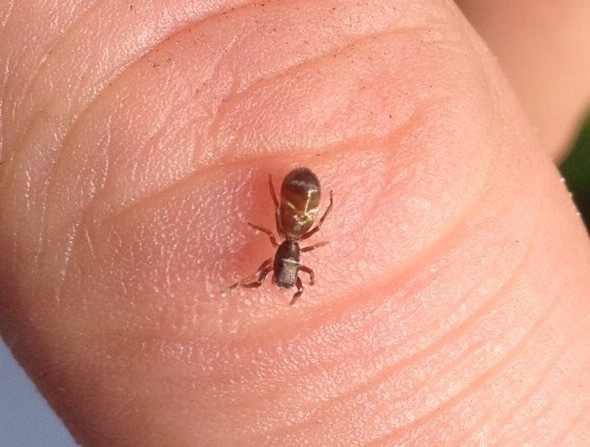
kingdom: Animalia
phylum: Arthropoda
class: Arachnida
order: Araneae
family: Salticidae
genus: Synageles
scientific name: Synageles venator
